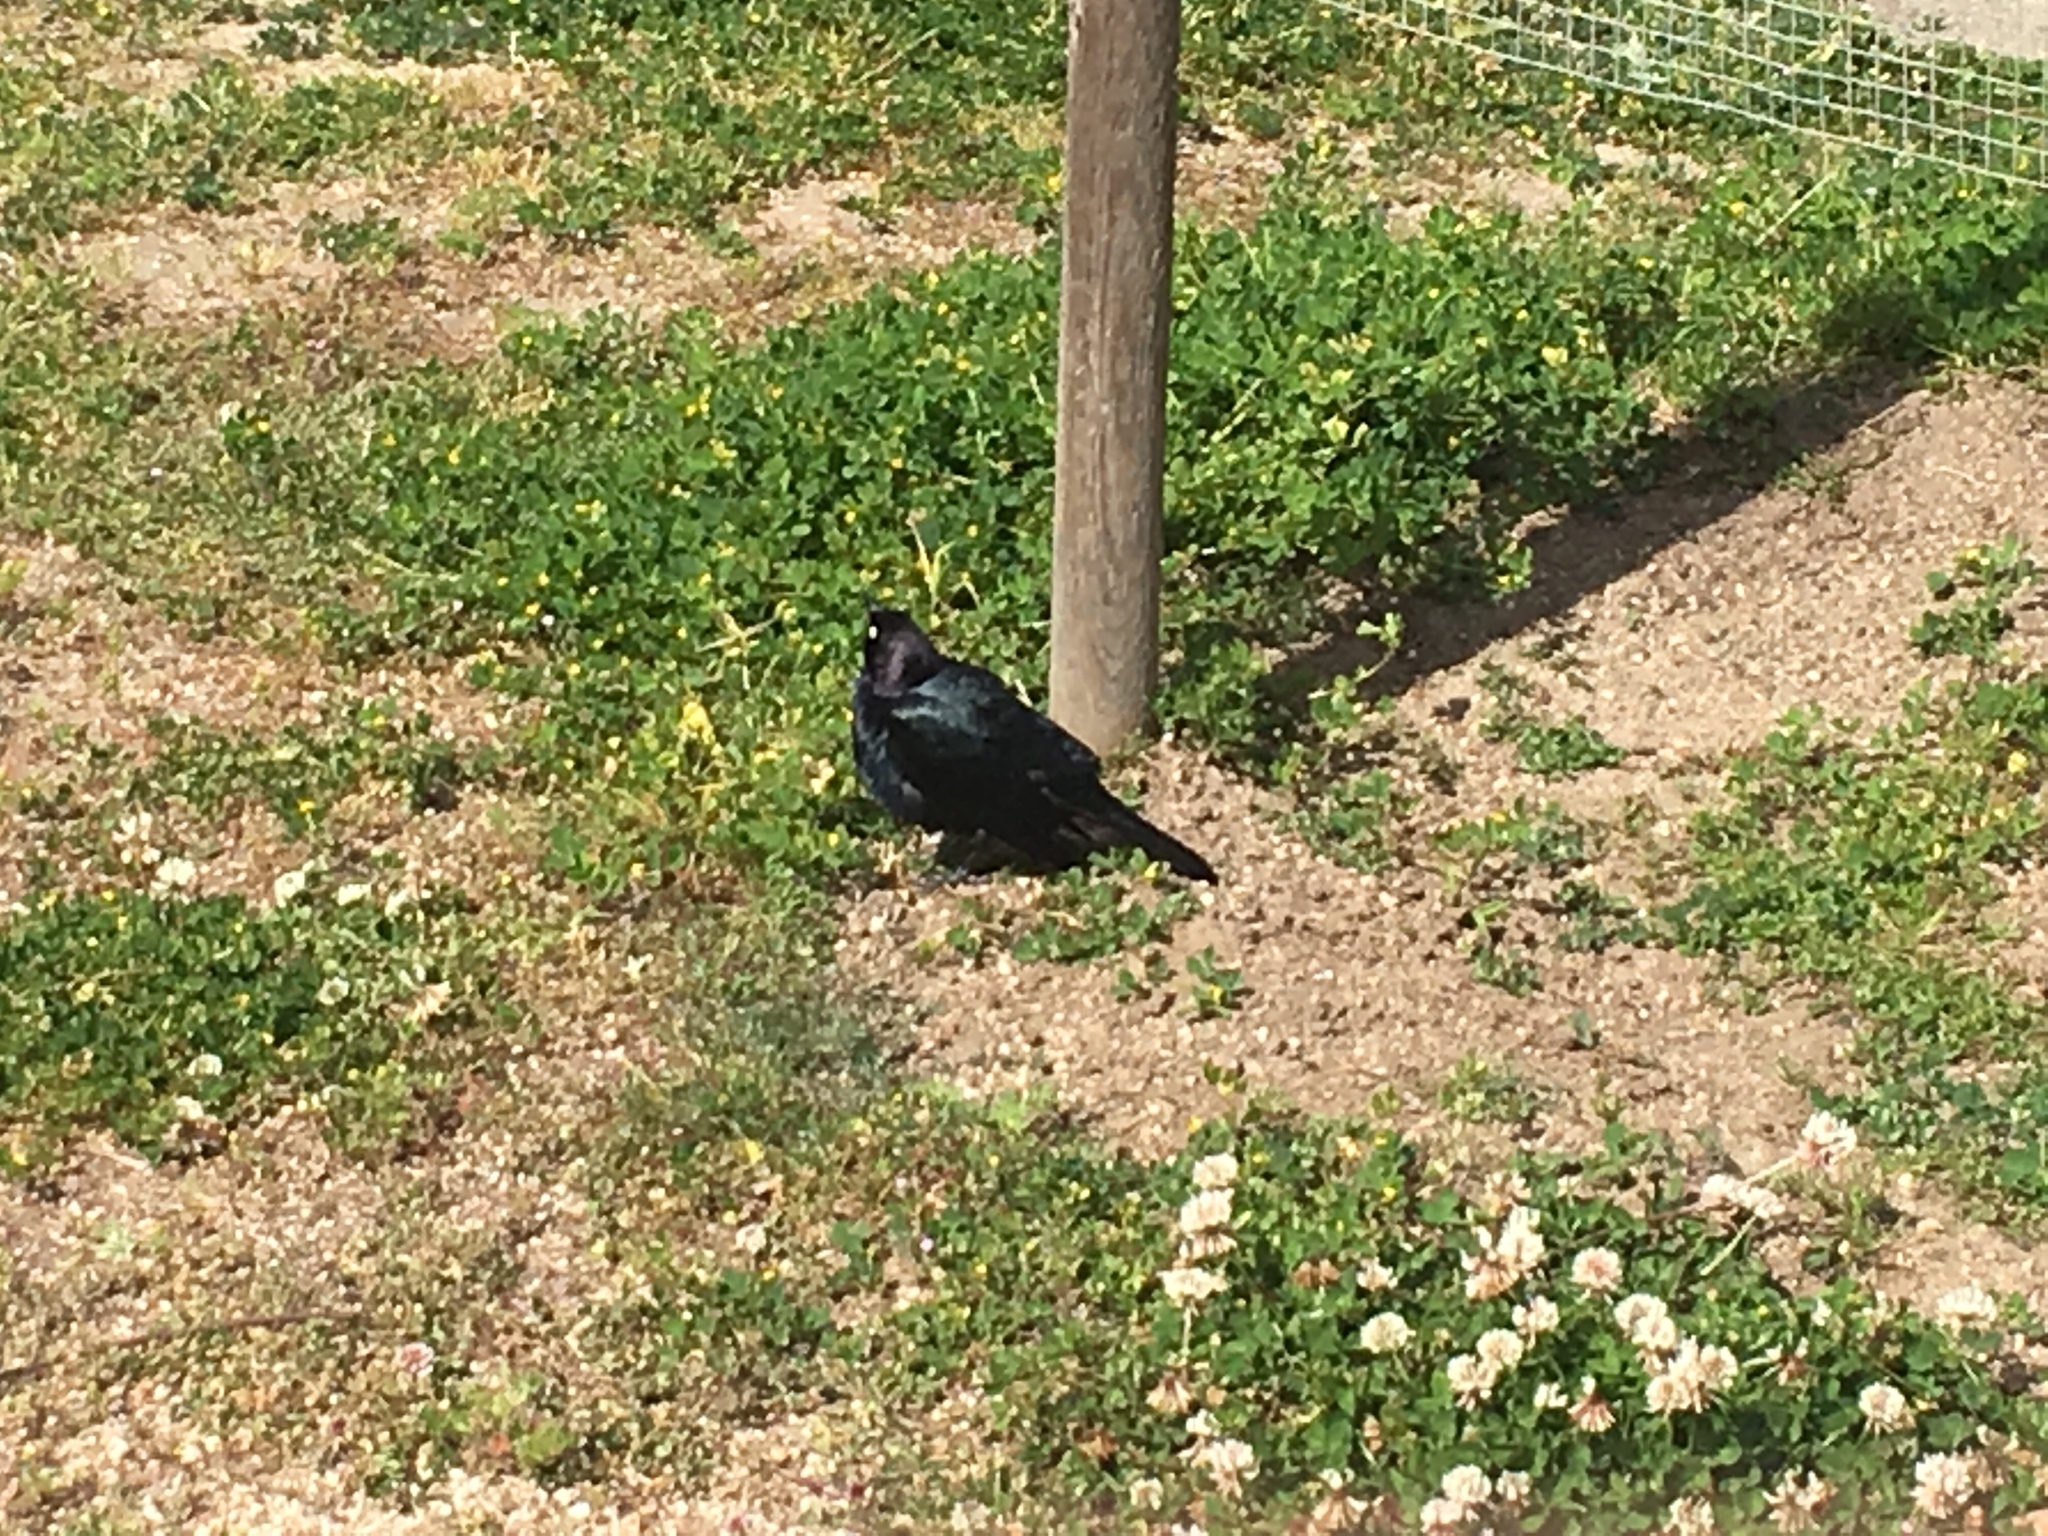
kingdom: Animalia
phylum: Chordata
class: Aves
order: Passeriformes
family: Icteridae
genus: Euphagus
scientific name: Euphagus cyanocephalus
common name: Brewer's blackbird
